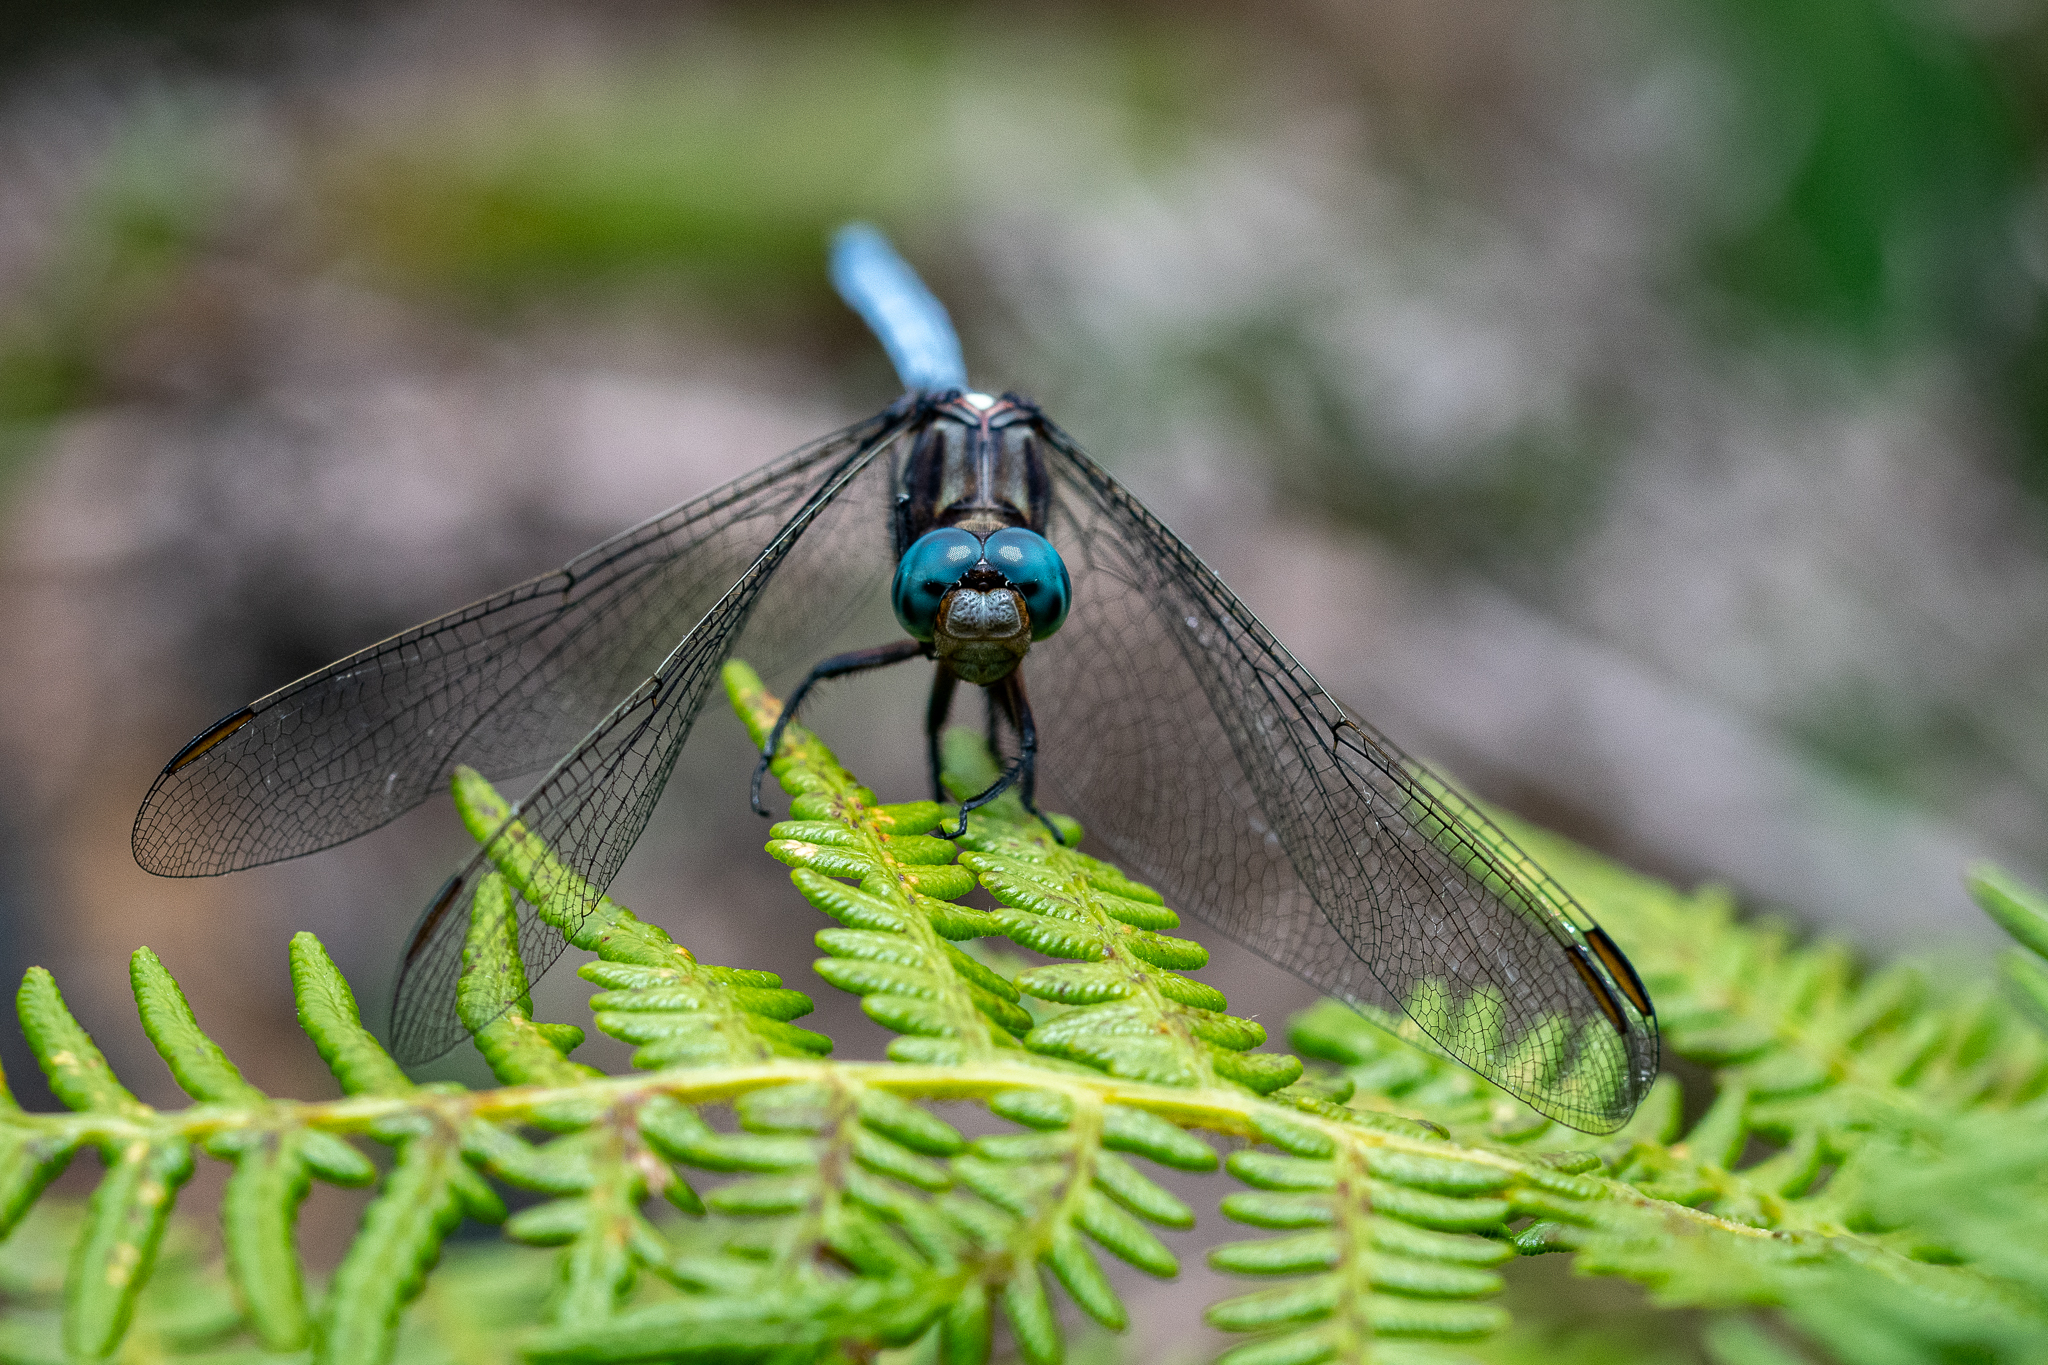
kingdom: Animalia
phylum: Arthropoda
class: Insecta
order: Odonata
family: Libellulidae
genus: Orthetrum
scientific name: Orthetrum julia
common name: Julia skimmer
